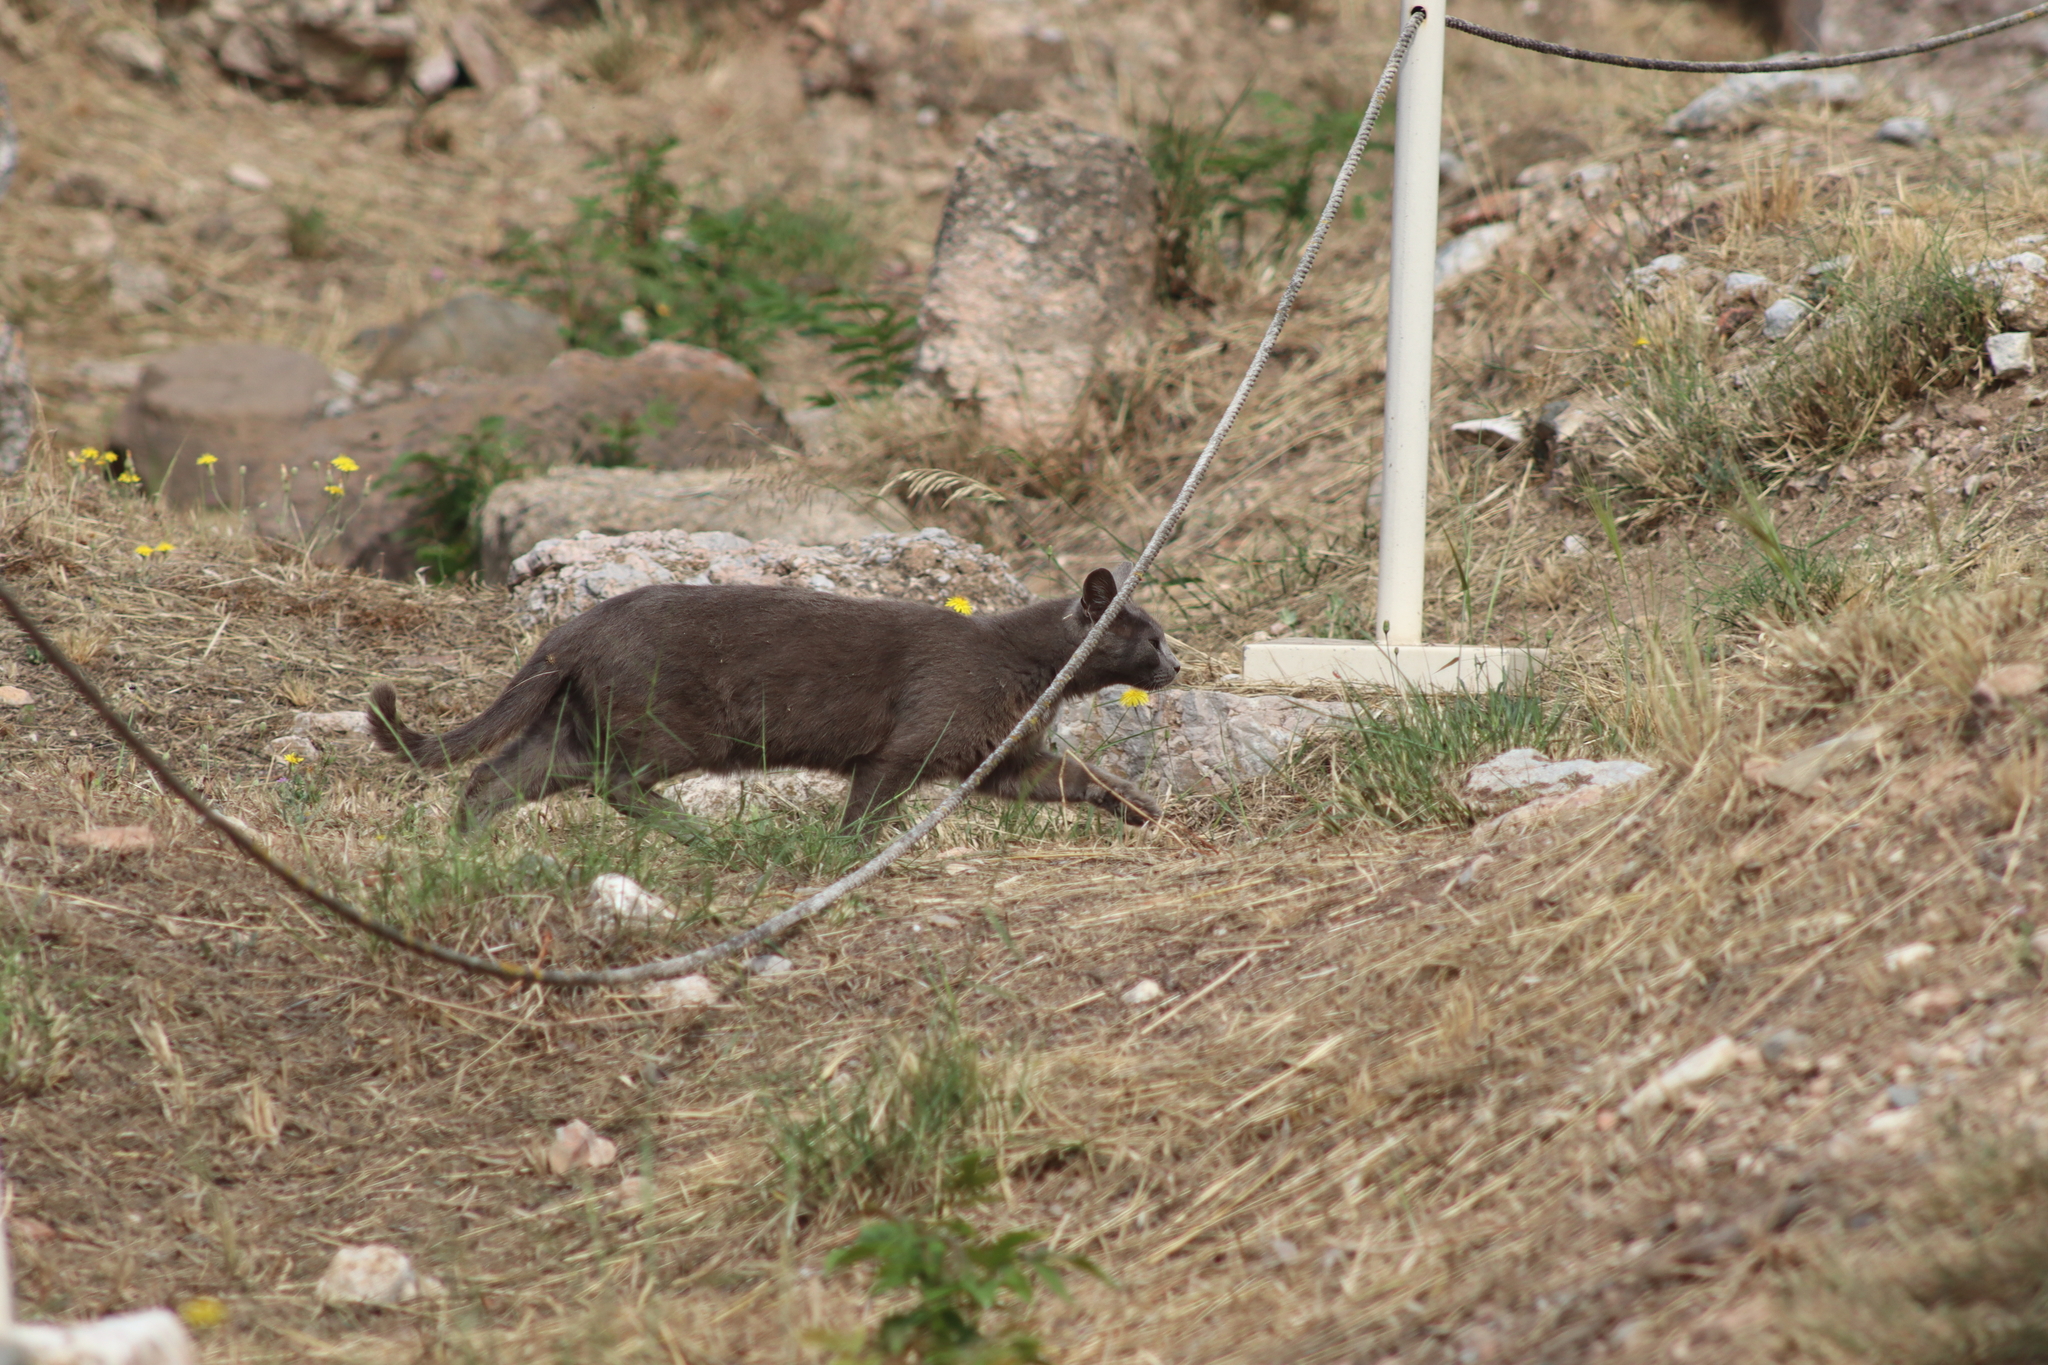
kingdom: Animalia
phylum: Chordata
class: Mammalia
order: Carnivora
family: Felidae
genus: Felis
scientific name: Felis catus
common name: Domestic cat
